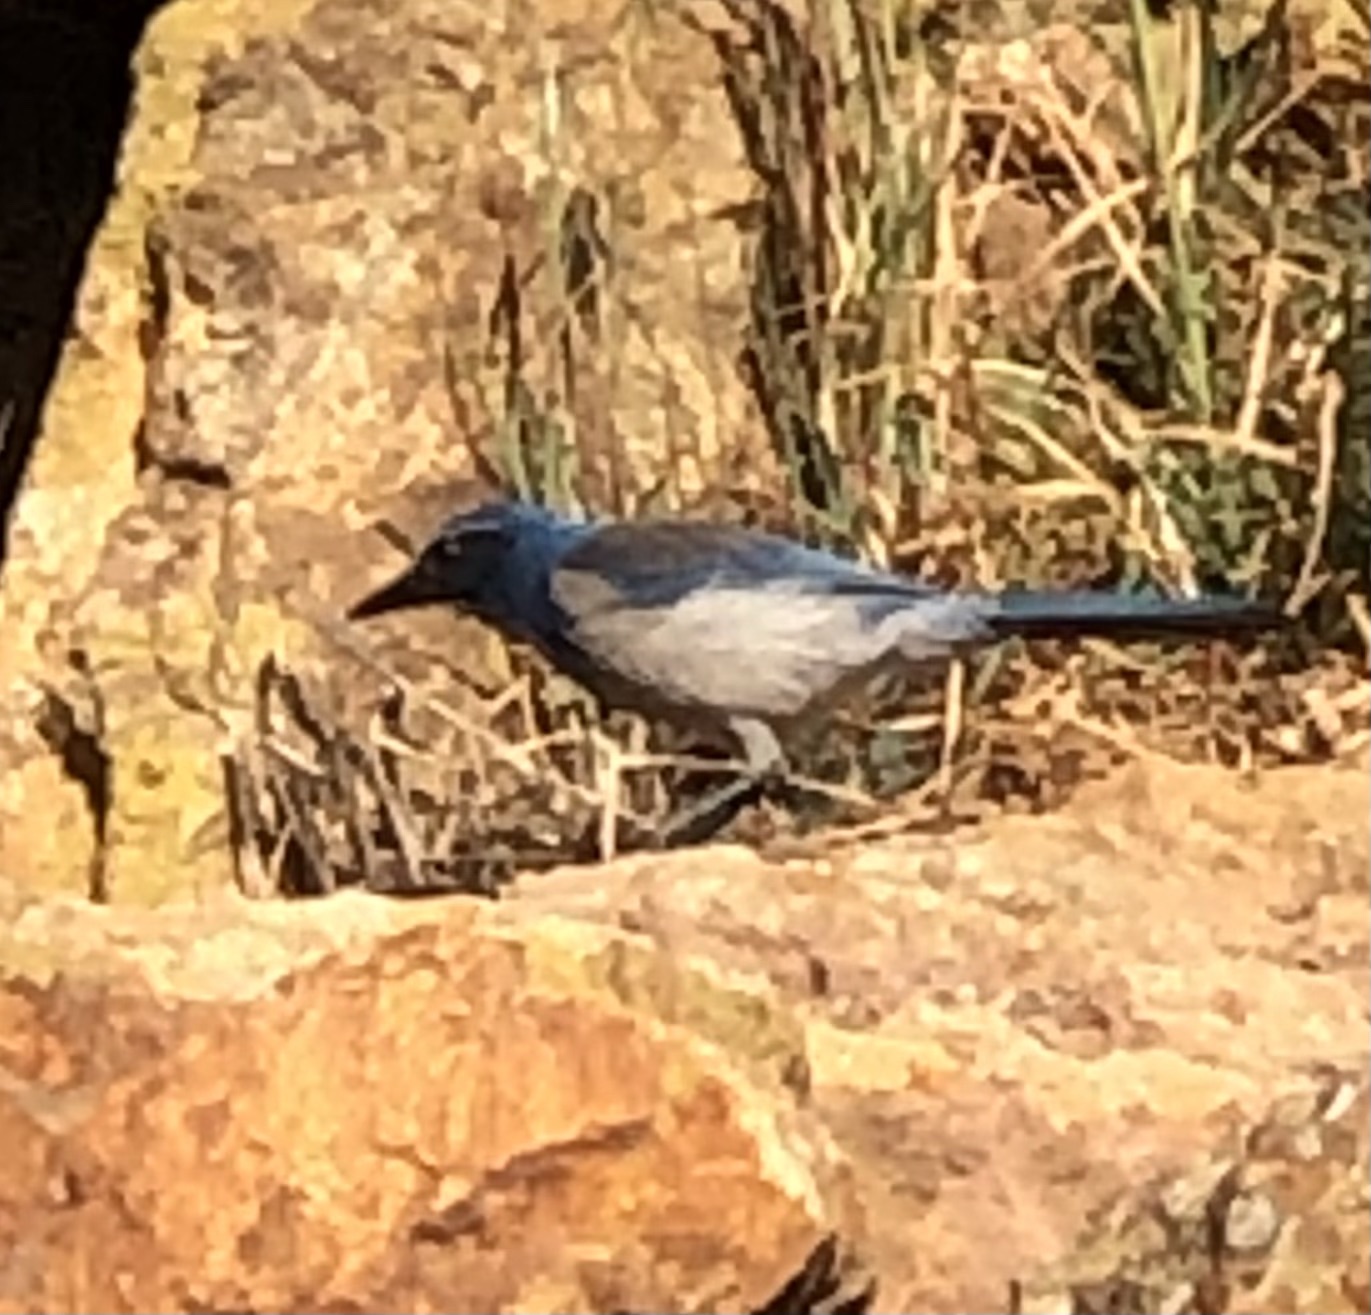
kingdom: Animalia
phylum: Chordata
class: Aves
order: Passeriformes
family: Corvidae
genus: Aphelocoma
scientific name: Aphelocoma californica
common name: California scrub-jay
